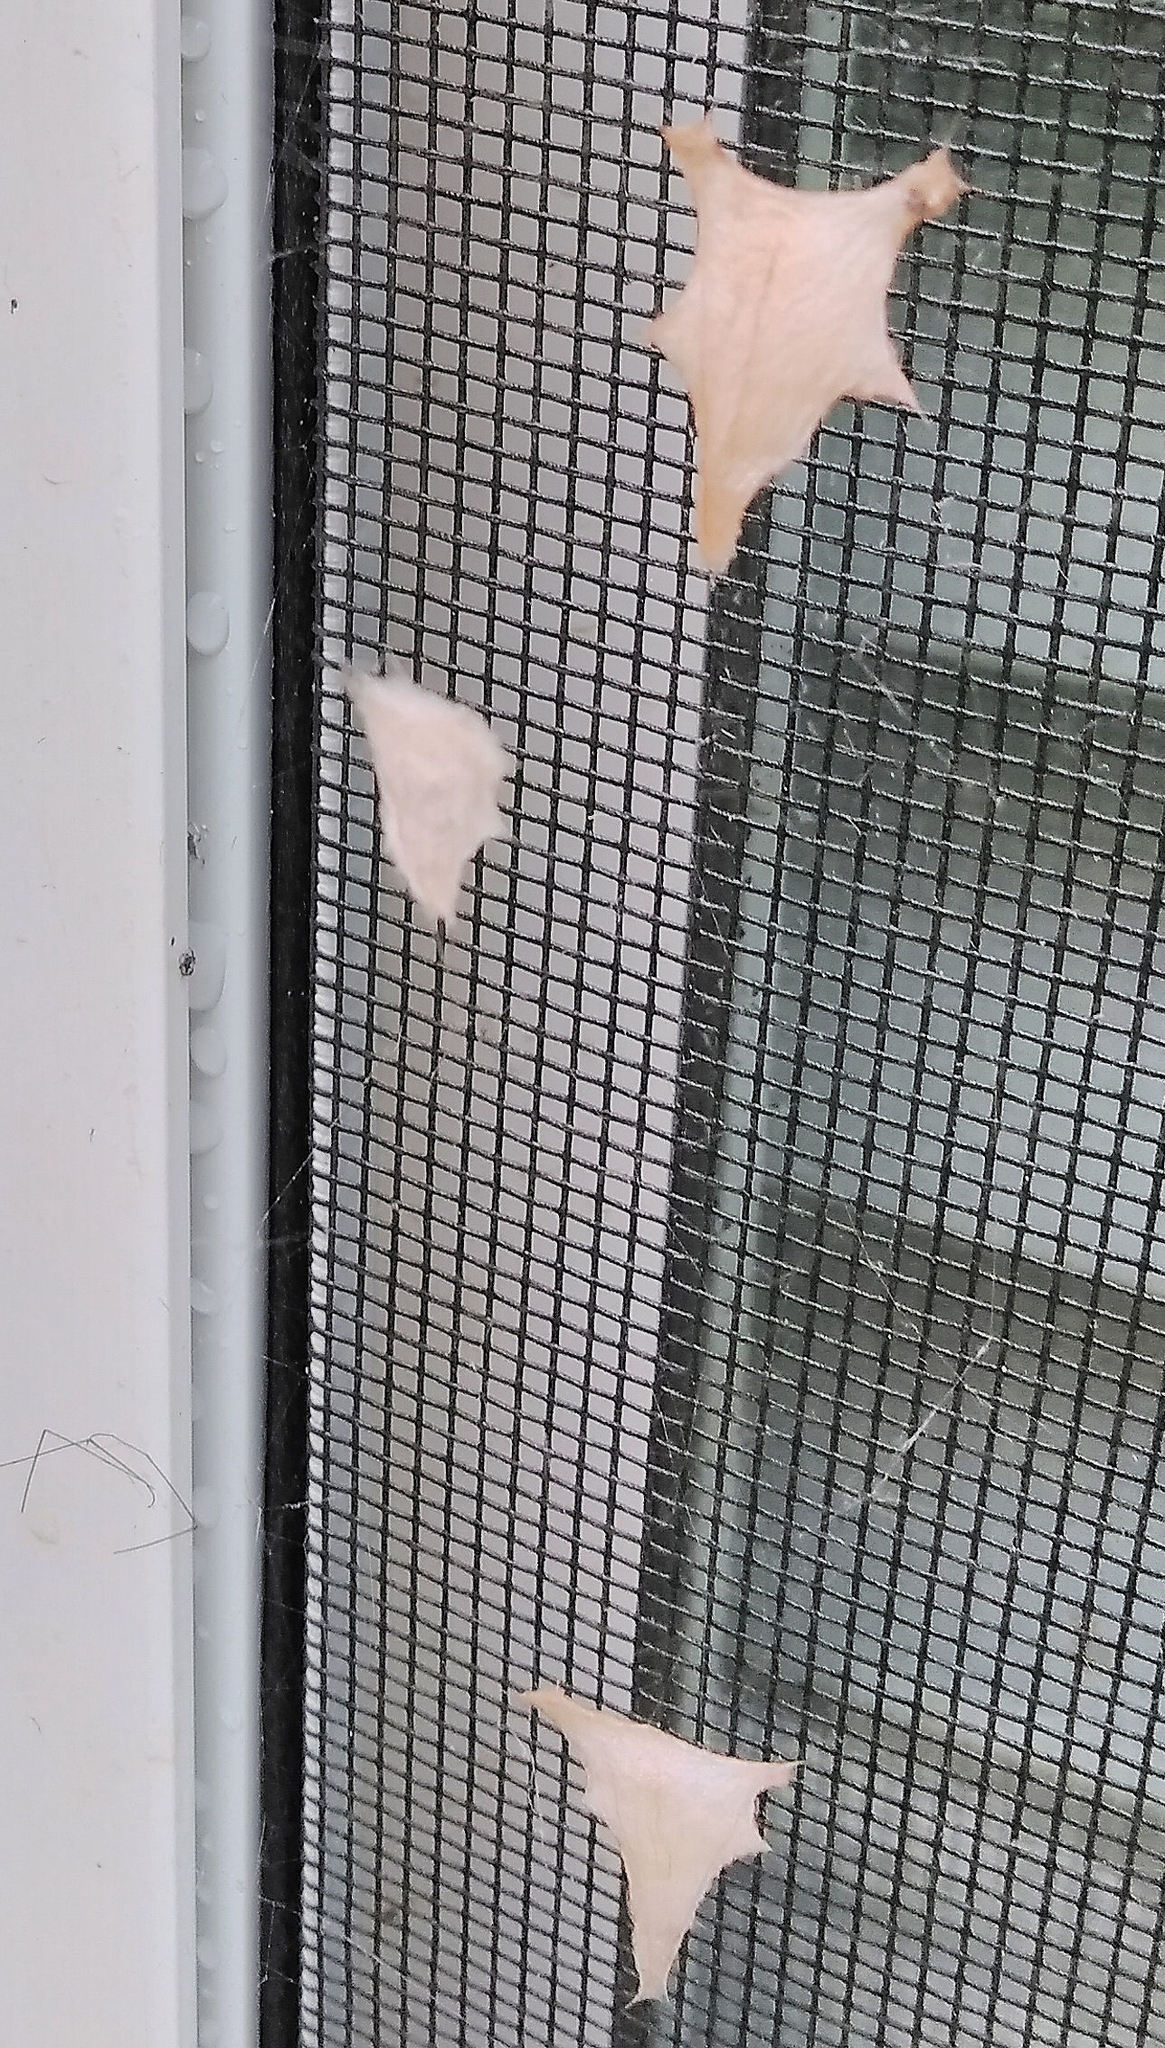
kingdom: Animalia
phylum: Arthropoda
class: Arachnida
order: Araneae
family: Araneidae
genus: Gea
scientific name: Gea heptagon
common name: Orb weavers
